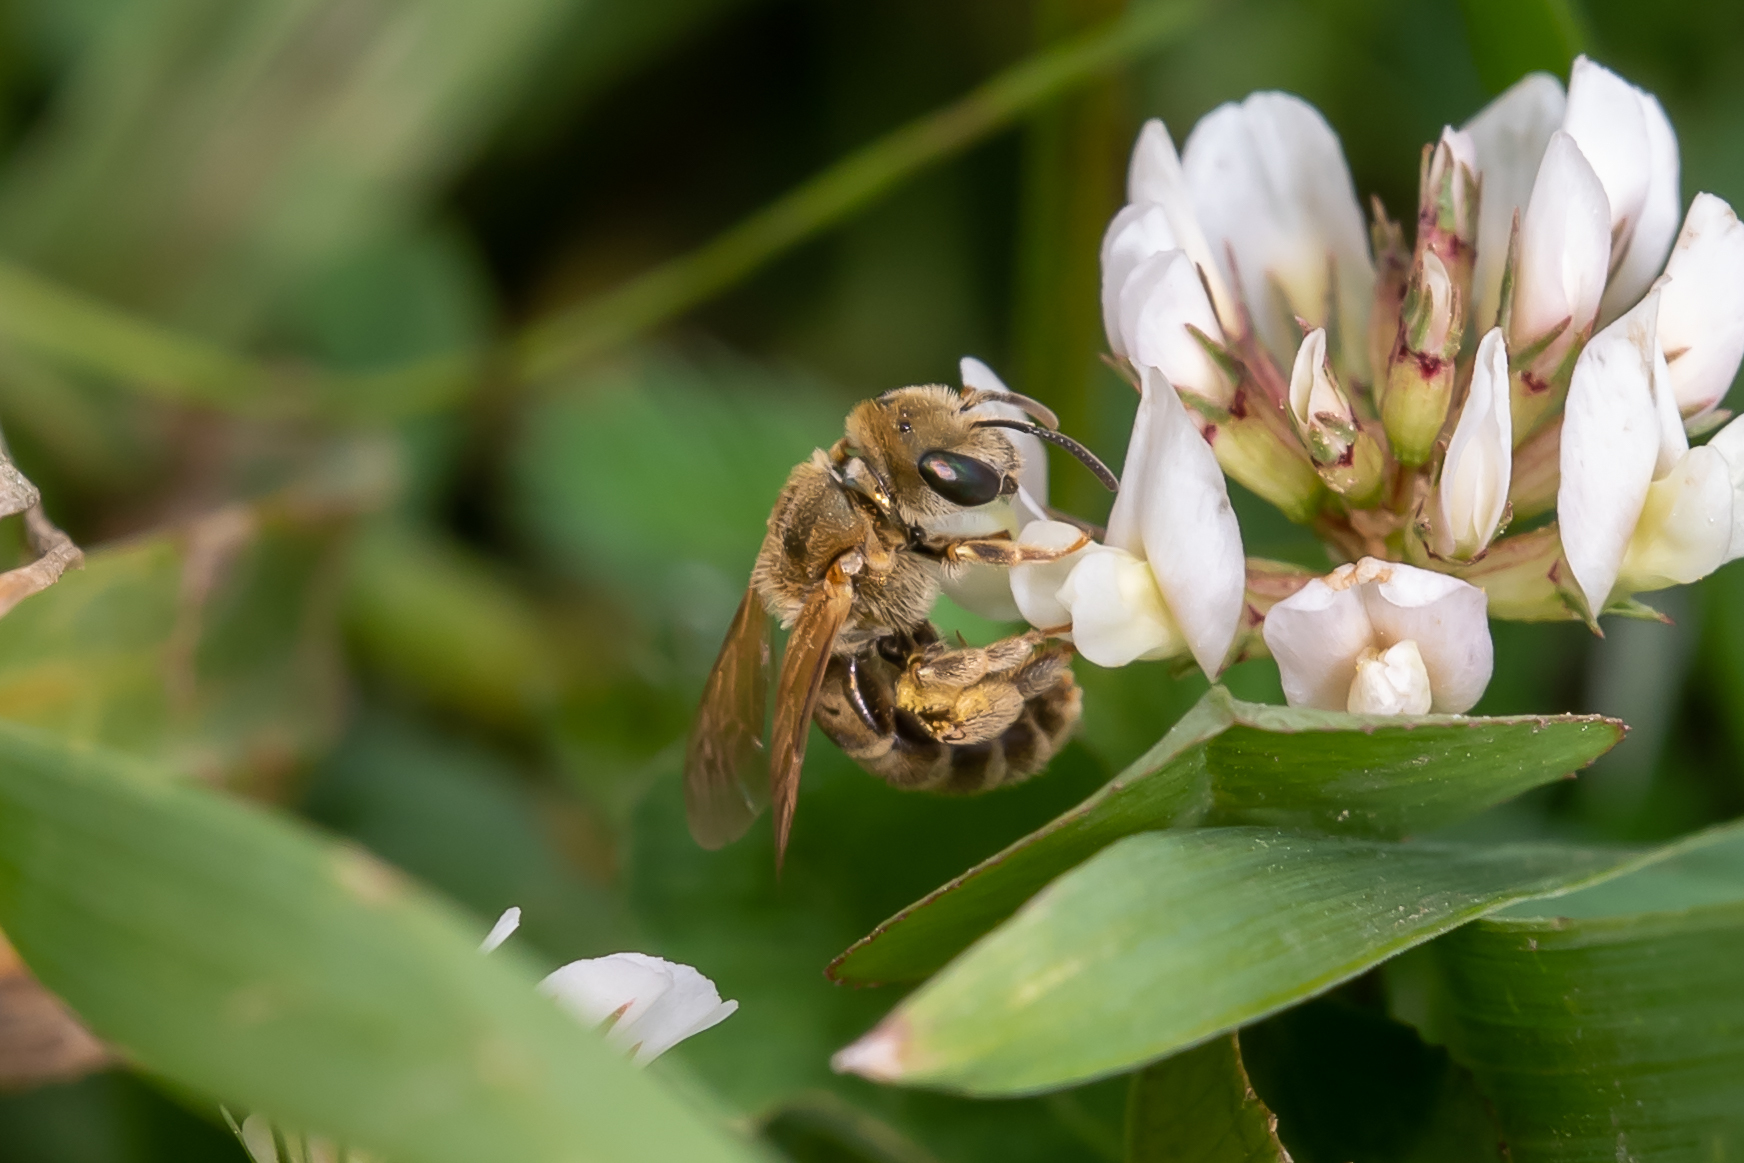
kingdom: Animalia
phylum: Arthropoda
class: Insecta
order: Hymenoptera
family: Halictidae
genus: Halictus
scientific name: Halictus subauratus
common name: Golden furrow bee
